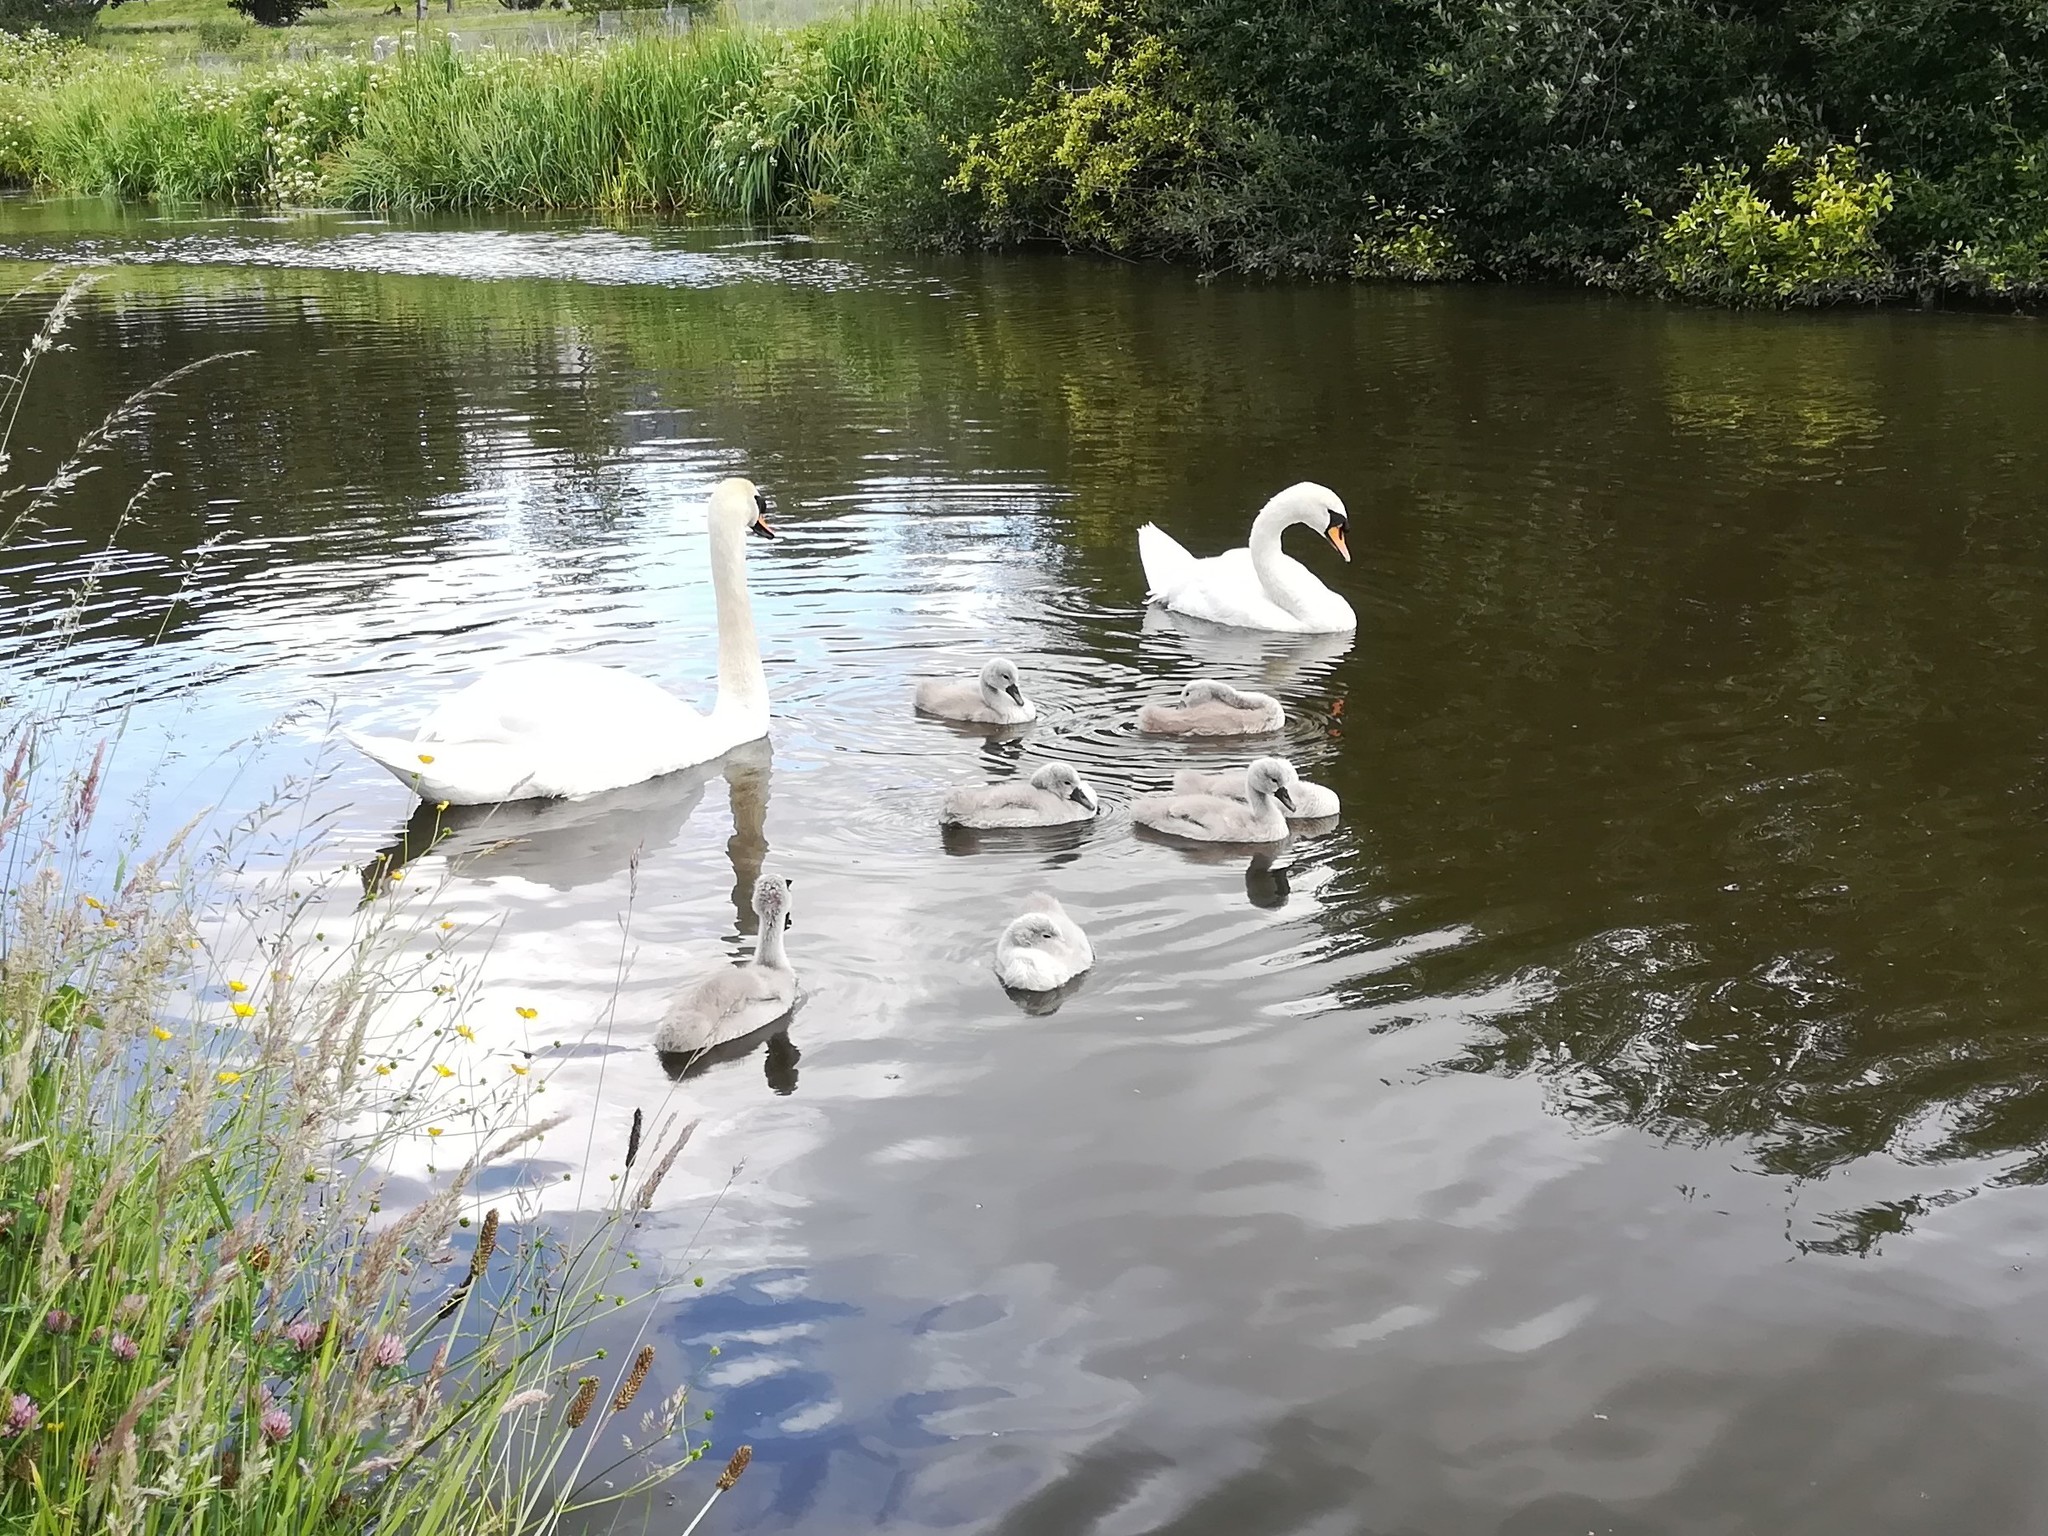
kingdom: Animalia
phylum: Chordata
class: Aves
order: Anseriformes
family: Anatidae
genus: Cygnus
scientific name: Cygnus olor
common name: Mute swan
